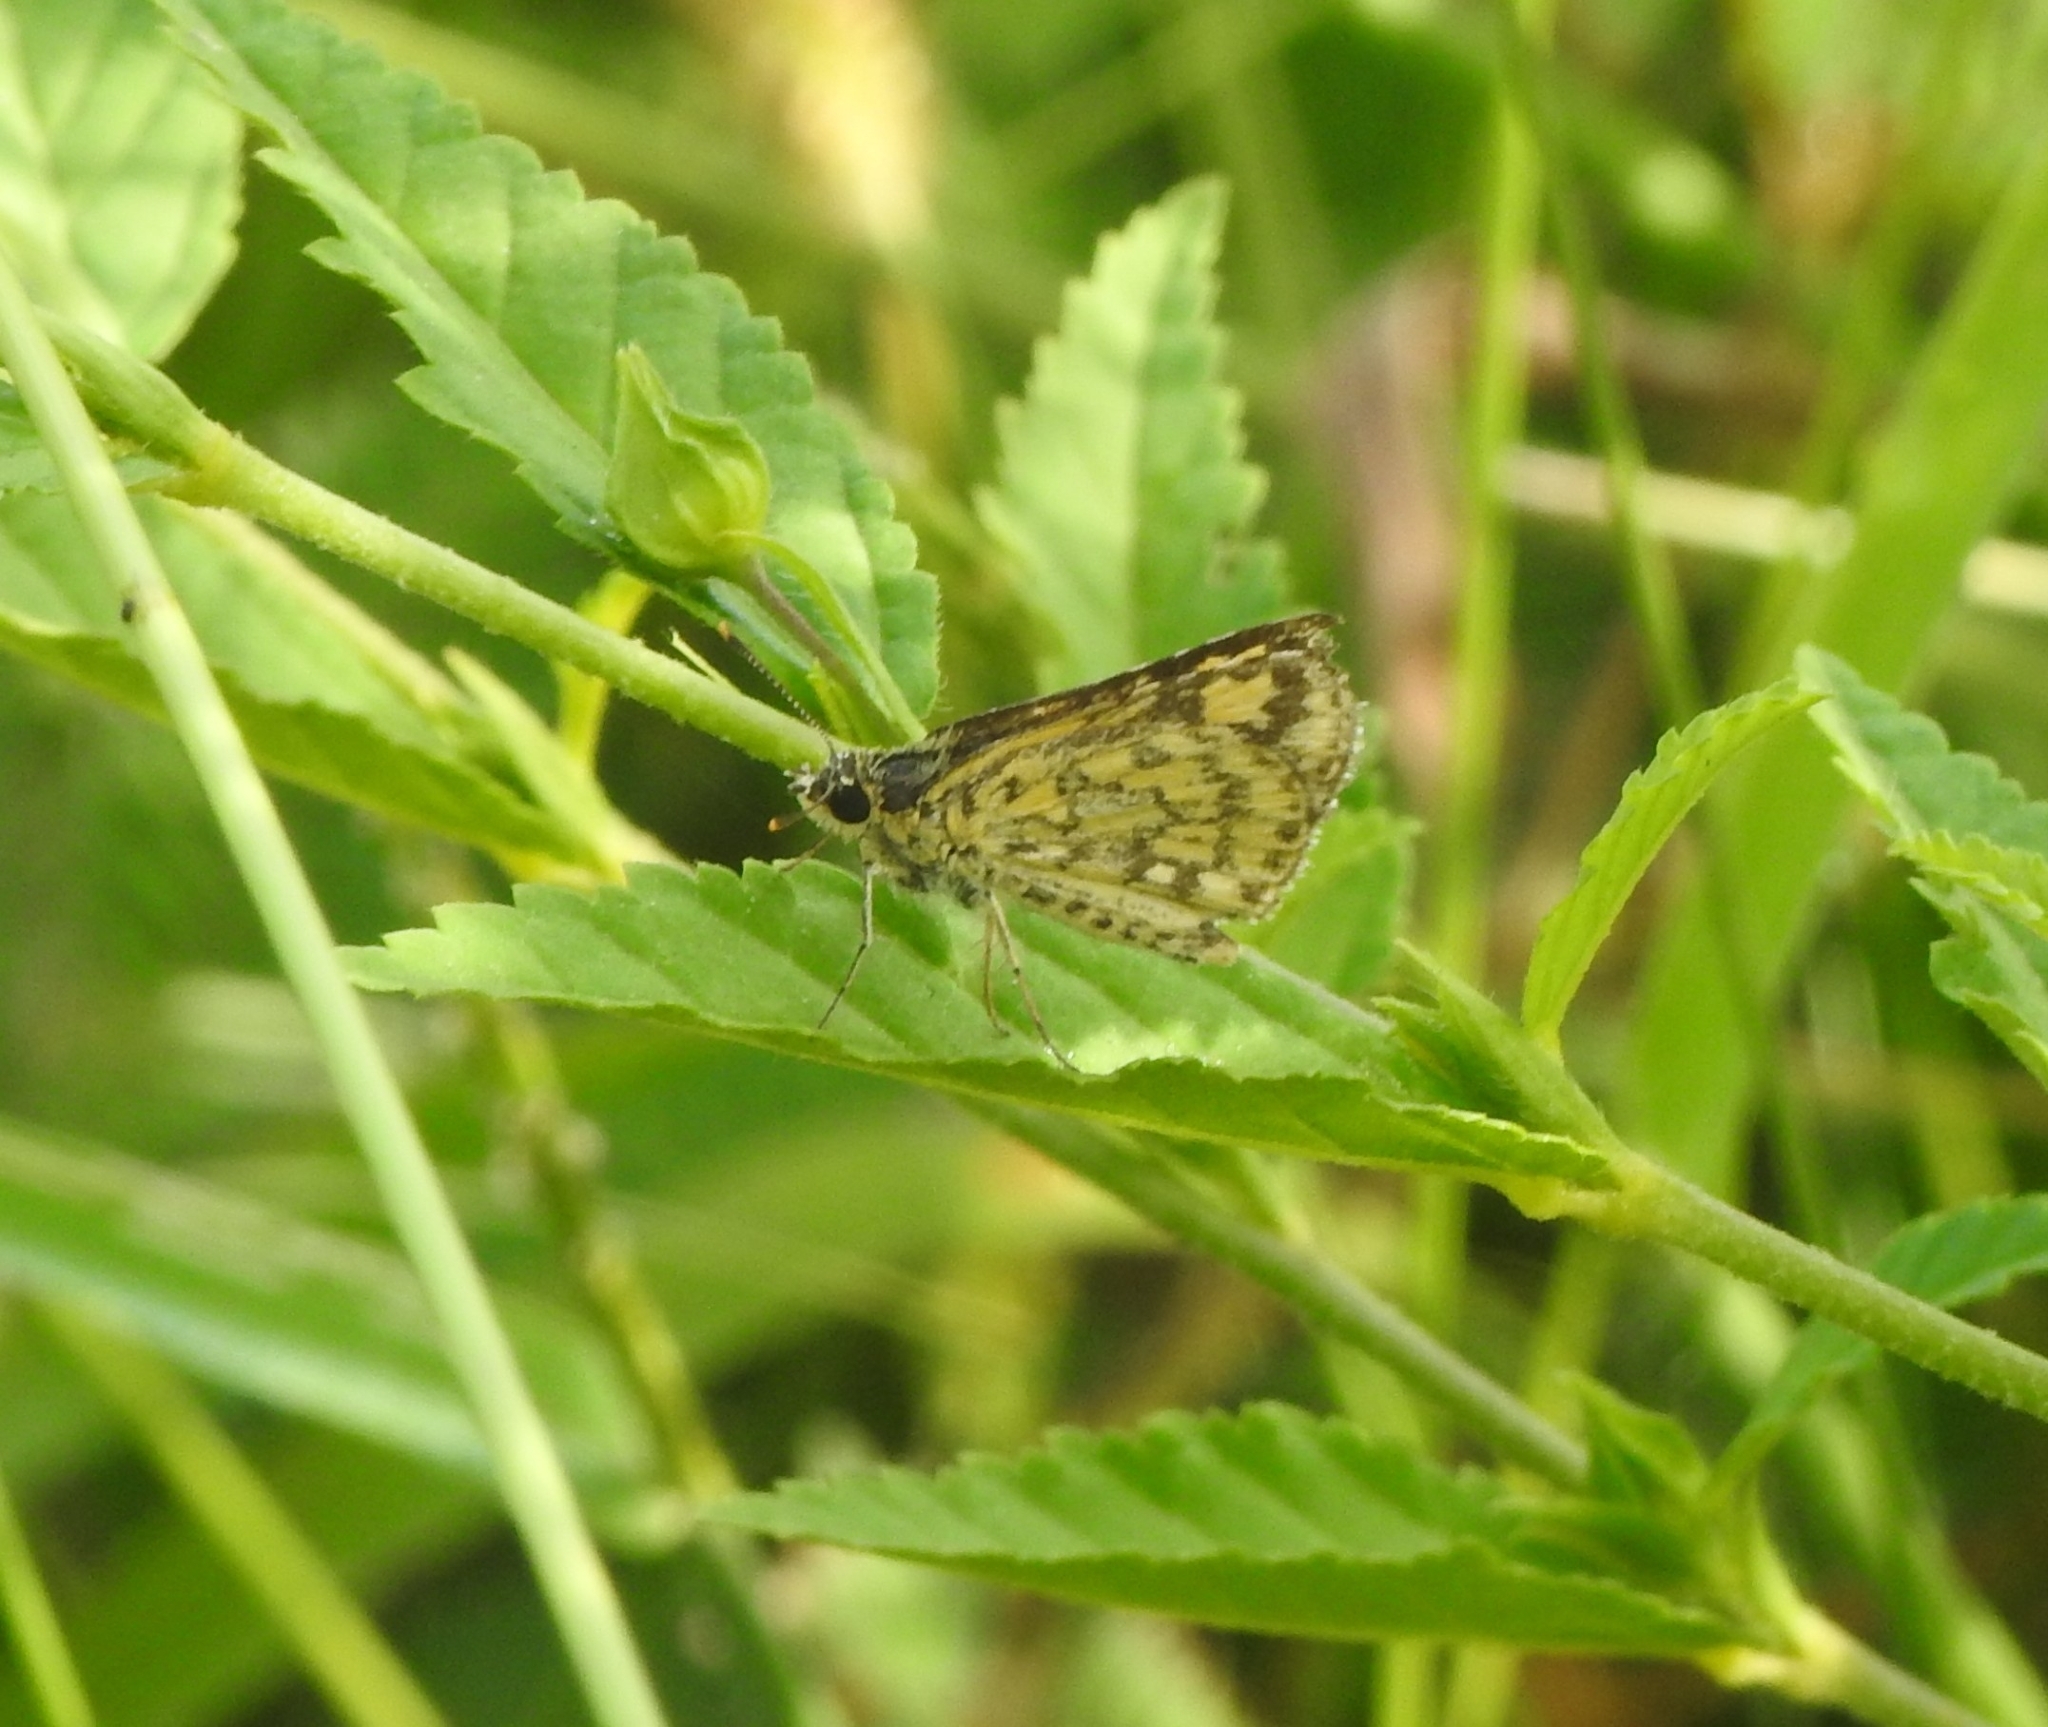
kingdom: Animalia
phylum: Arthropoda
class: Insecta
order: Lepidoptera
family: Hesperiidae
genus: Ampittia
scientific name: Ampittia dioscorides
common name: Common bush hopper
